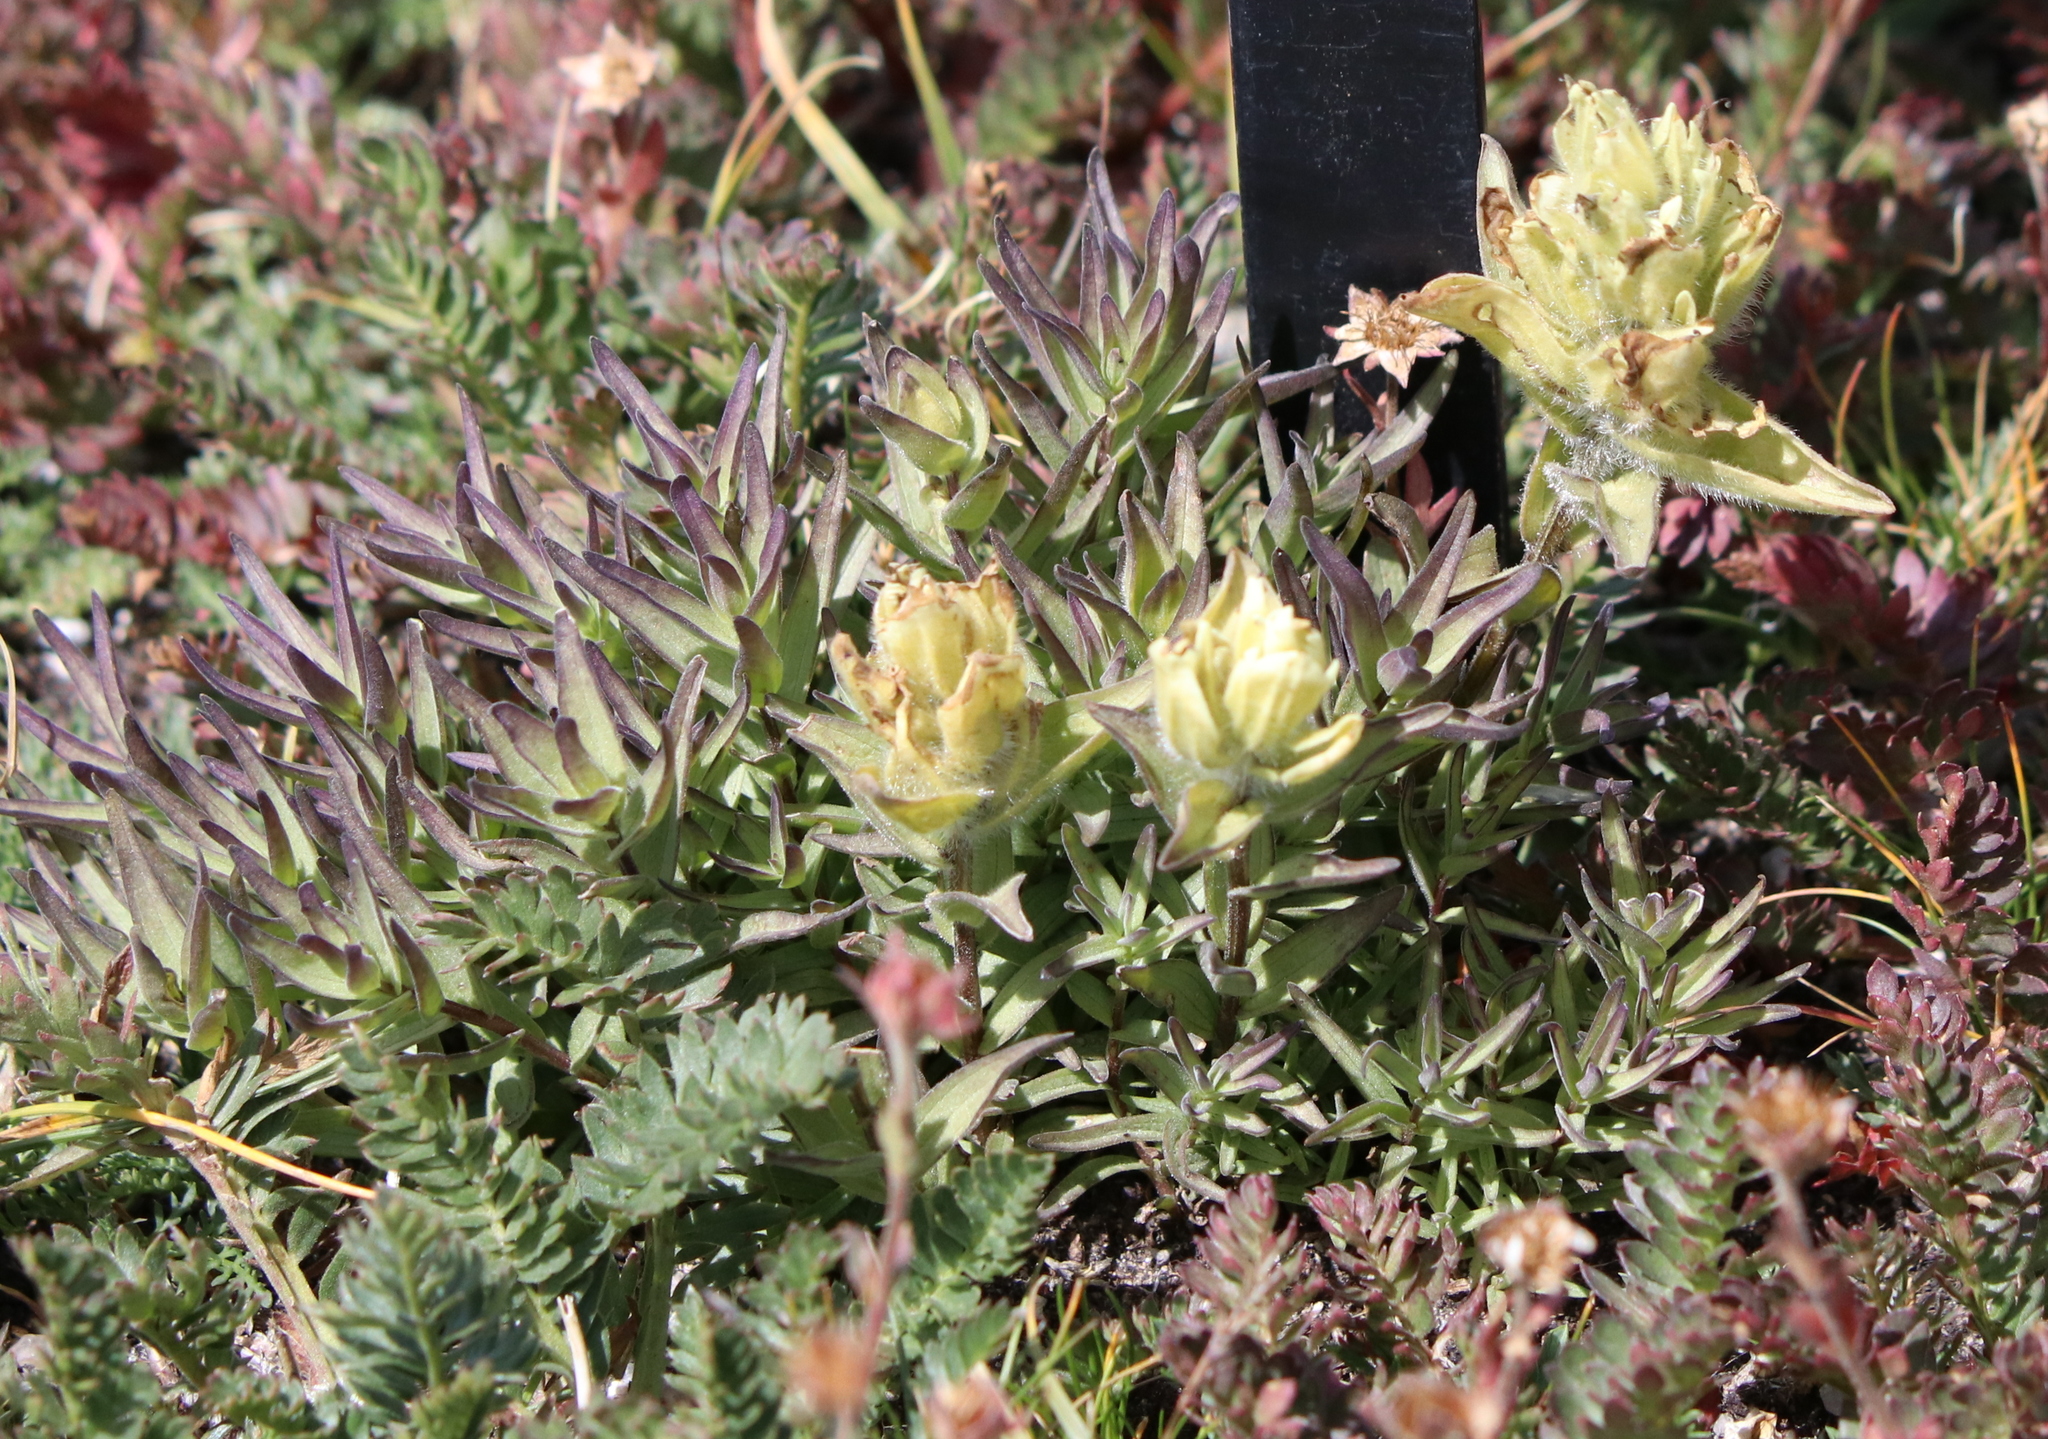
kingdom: Plantae
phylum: Tracheophyta
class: Magnoliopsida
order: Lamiales
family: Orobanchaceae
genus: Castilleja
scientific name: Castilleja occidentalis
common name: Western paintbrush
